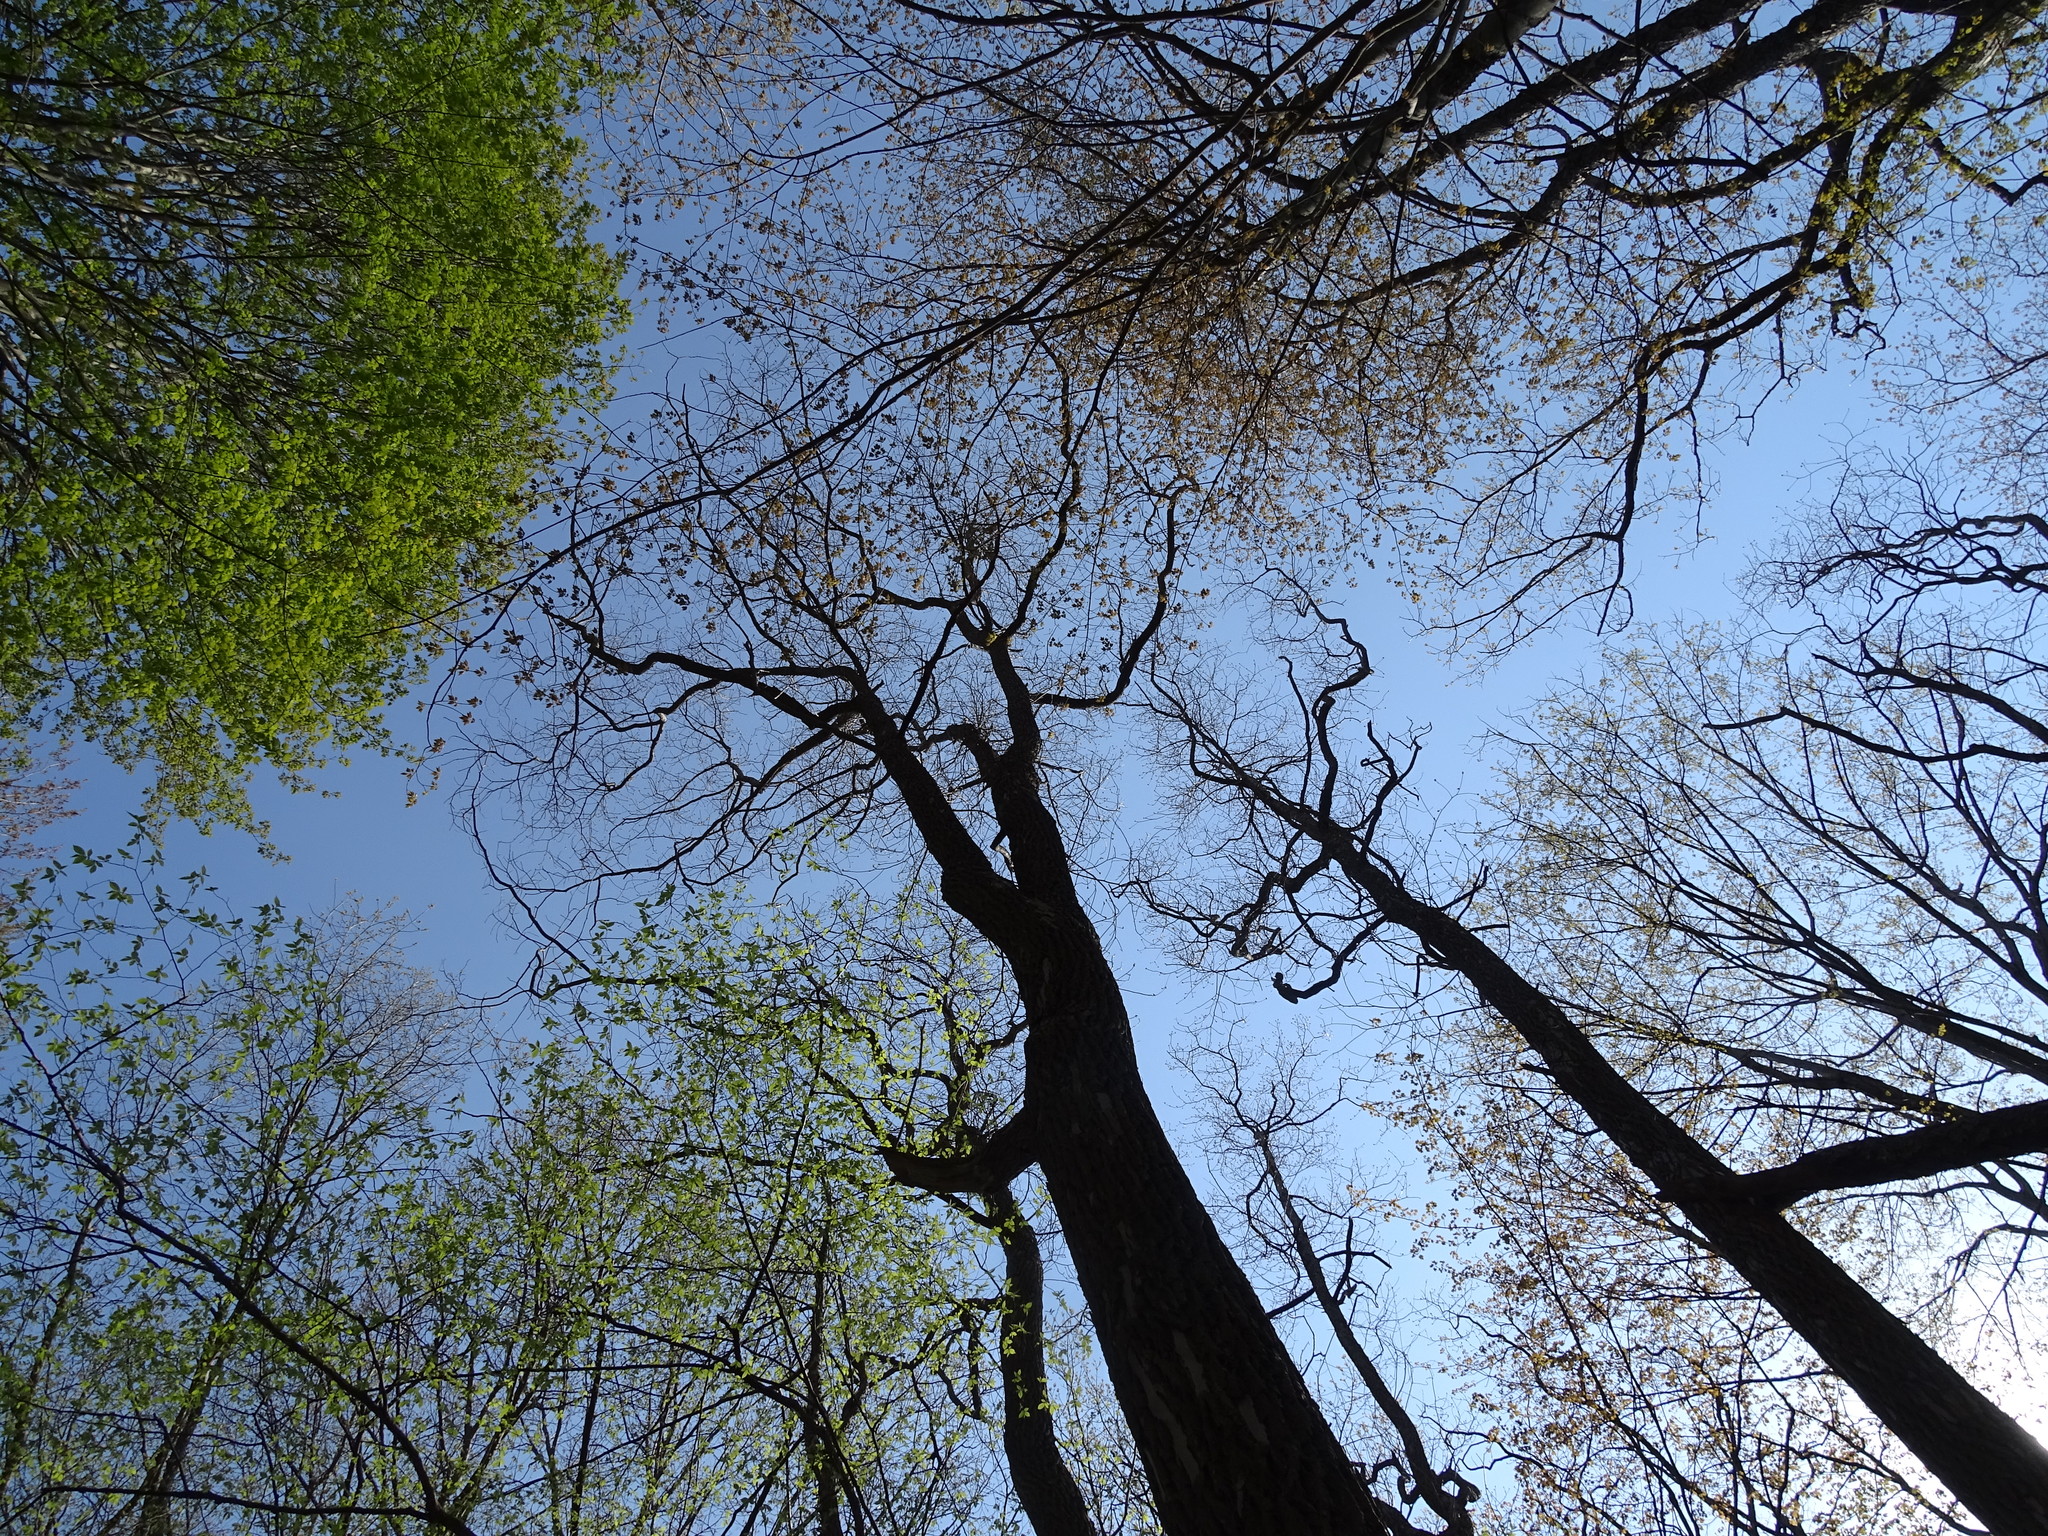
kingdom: Plantae
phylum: Tracheophyta
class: Magnoliopsida
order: Laurales
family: Lauraceae
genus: Sassafras
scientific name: Sassafras albidum
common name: Sassafras
